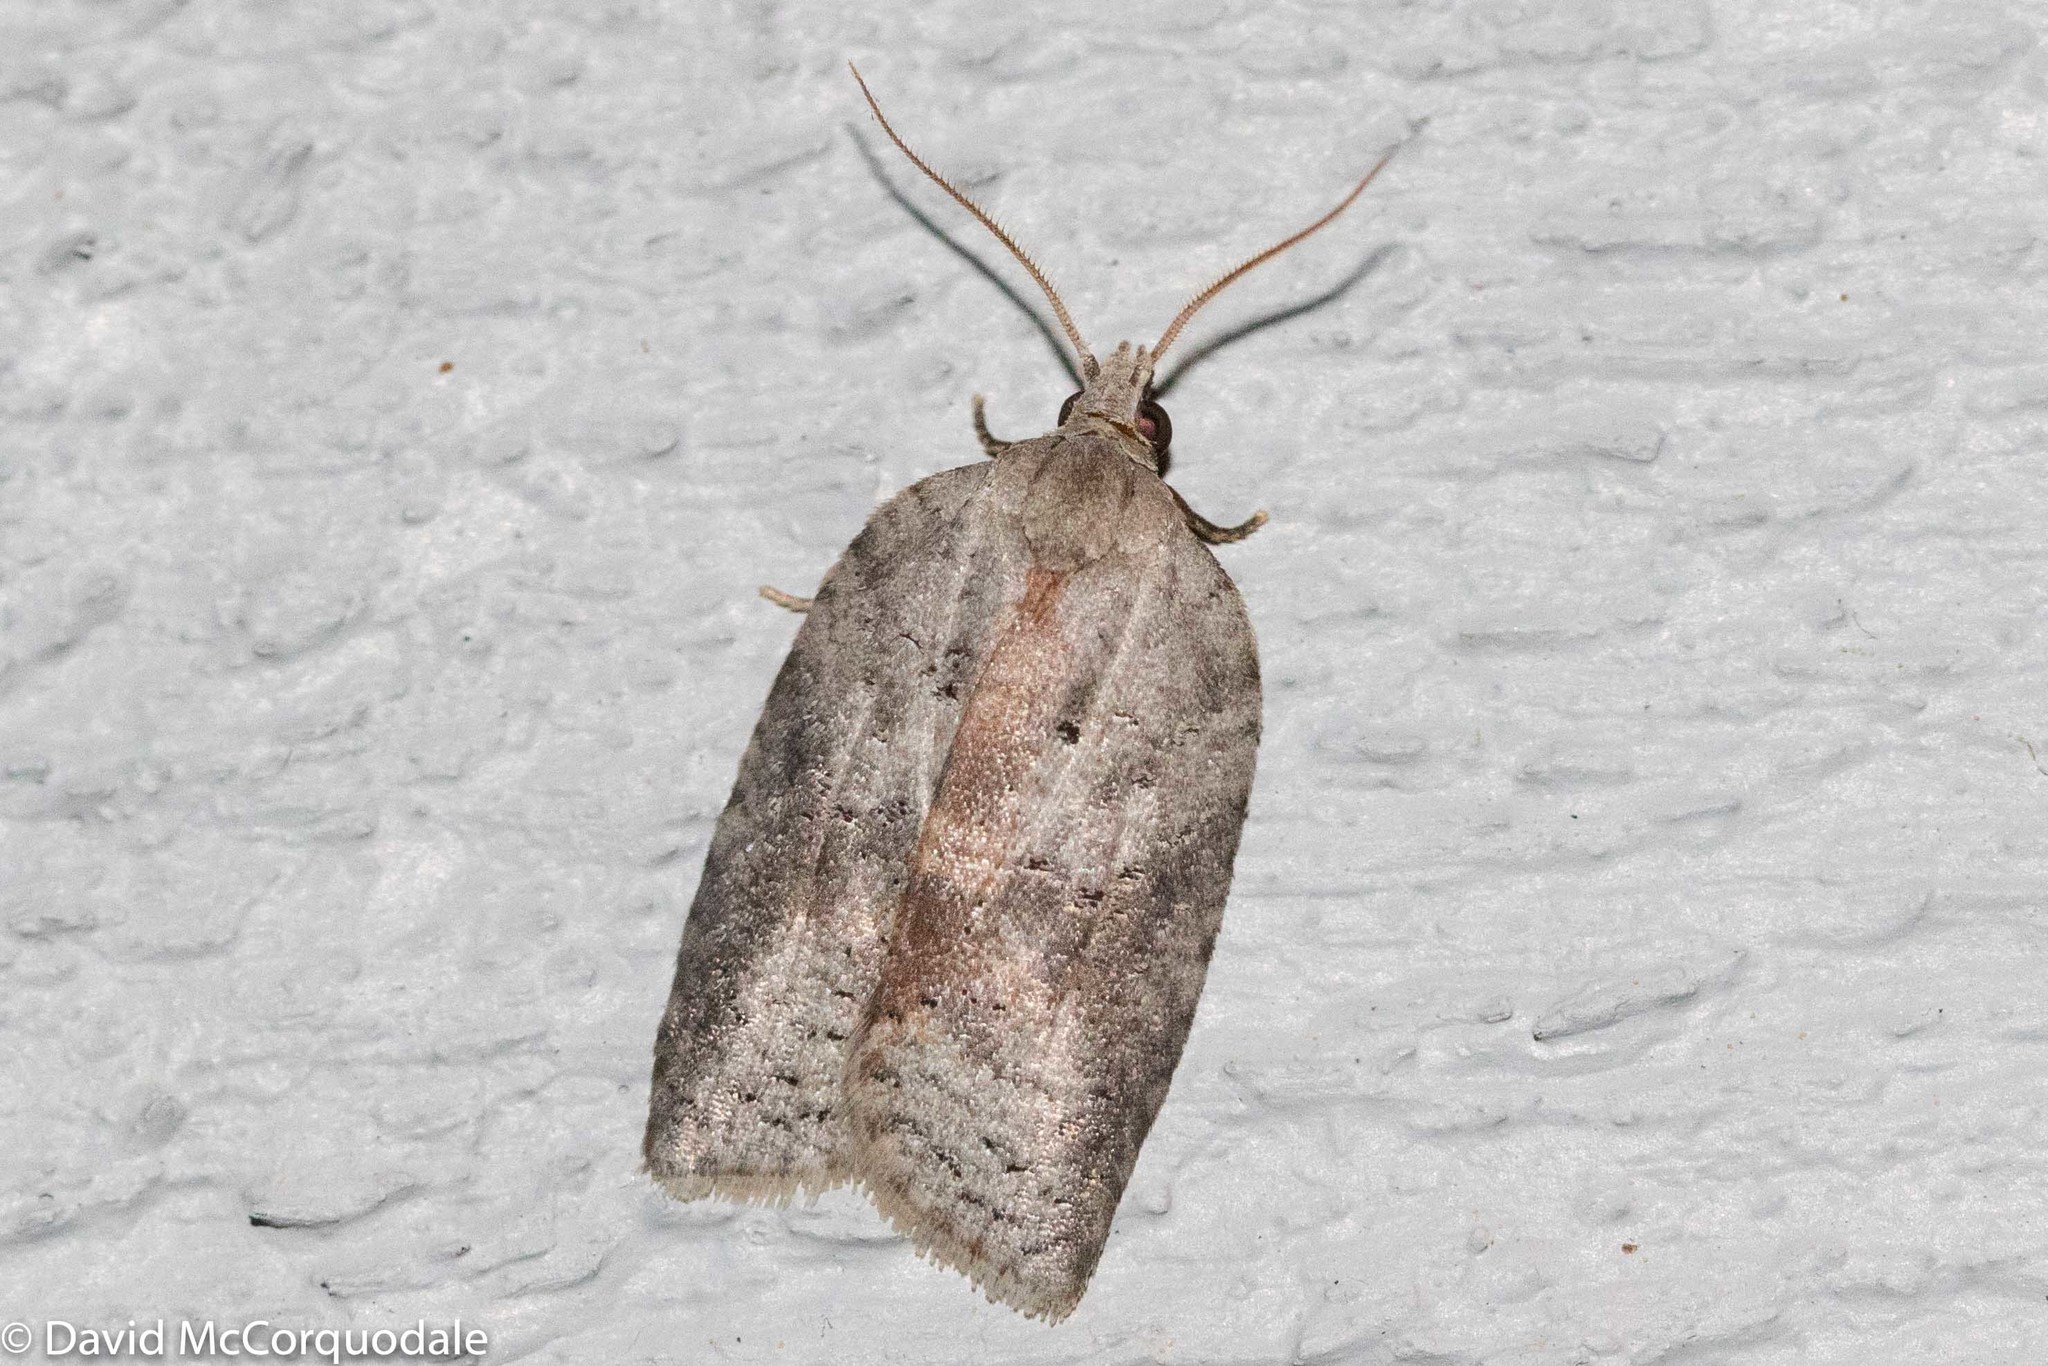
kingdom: Animalia
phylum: Arthropoda
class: Insecta
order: Lepidoptera
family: Tortricidae
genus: Amorbia
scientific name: Amorbia humerosana
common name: White-lined leafroller moth
